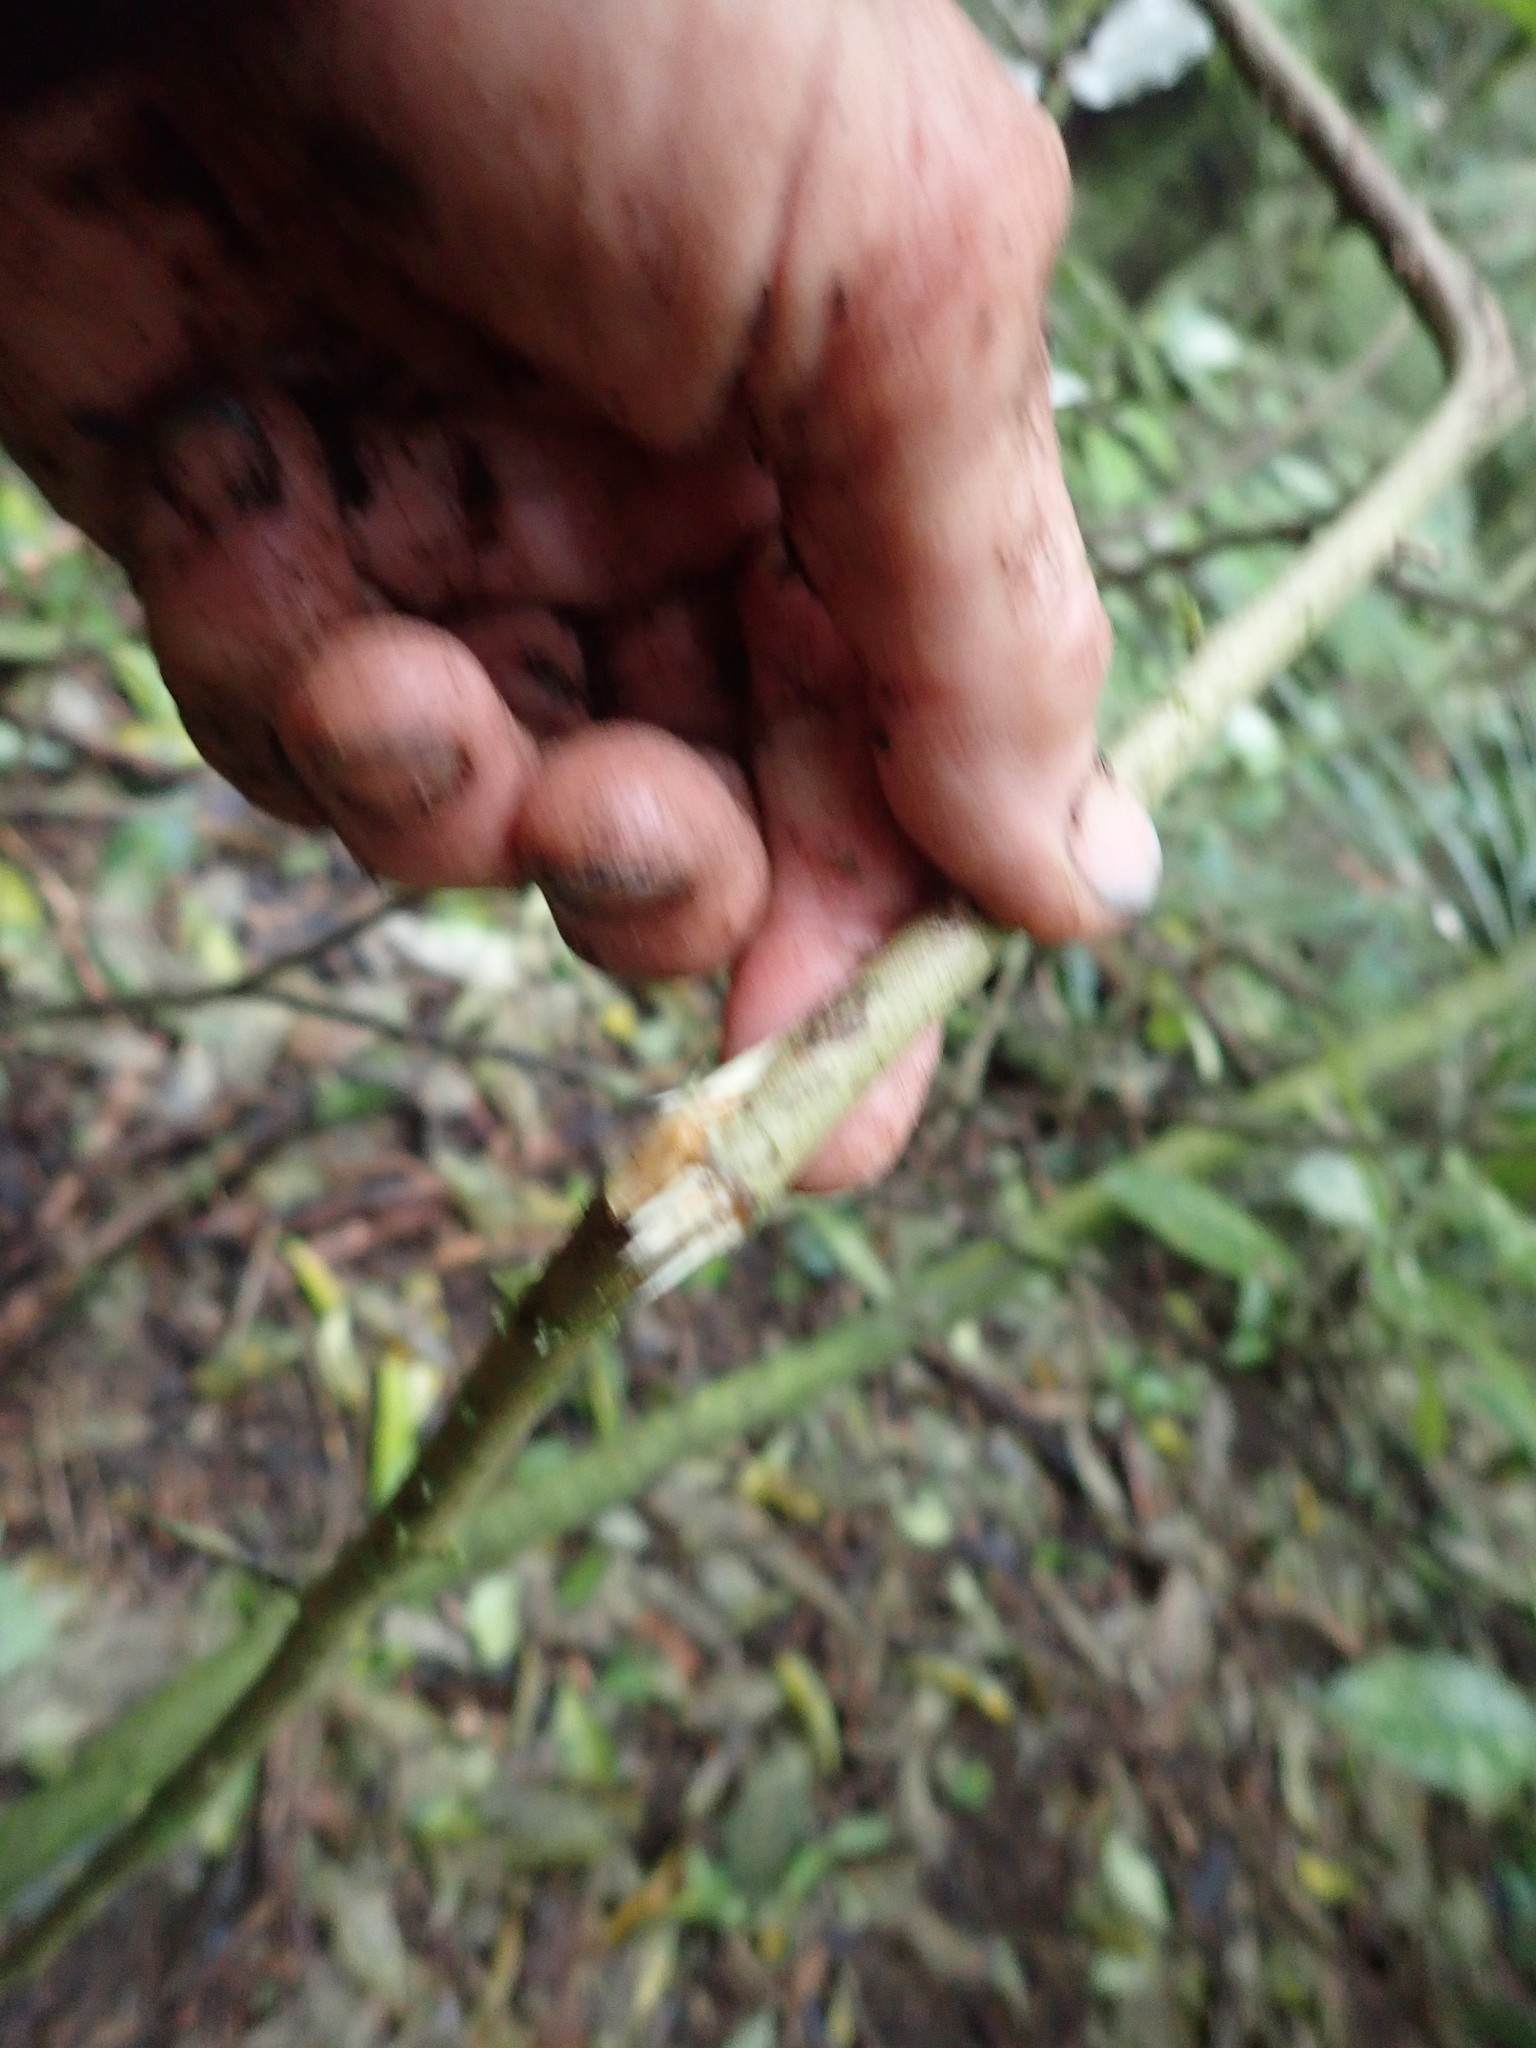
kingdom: Plantae
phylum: Tracheophyta
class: Magnoliopsida
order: Rosales
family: Elaeagnaceae
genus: Elaeagnus
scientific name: Elaeagnus reflexa
